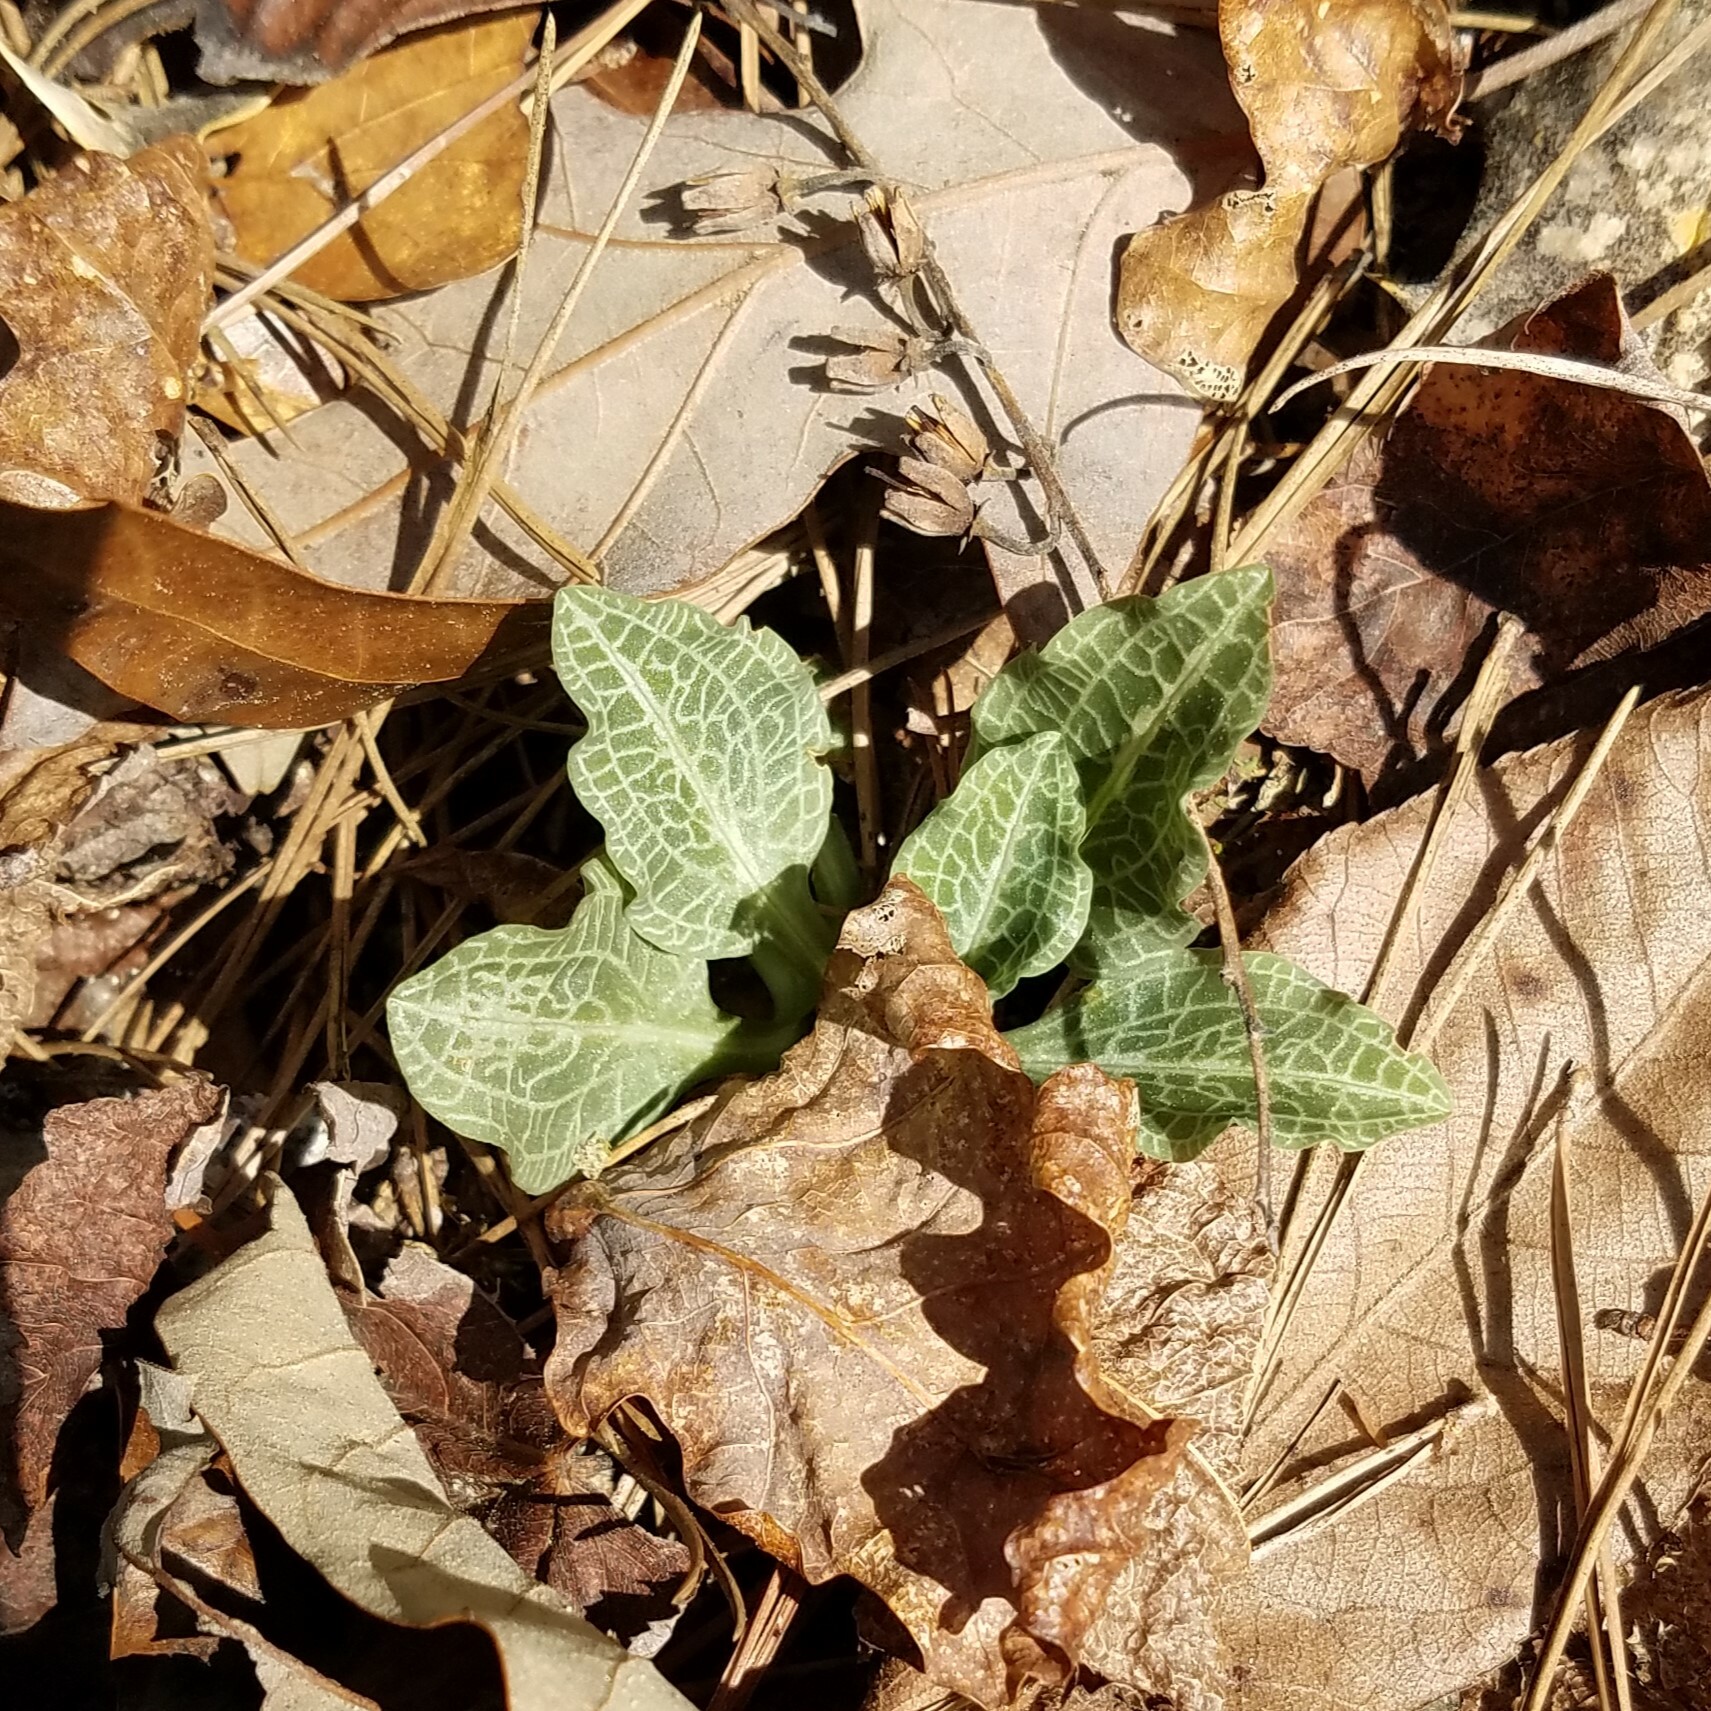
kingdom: Plantae
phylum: Tracheophyta
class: Liliopsida
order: Asparagales
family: Orchidaceae
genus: Goodyera
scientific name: Goodyera pubescens
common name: Downy rattlesnake-plantain
